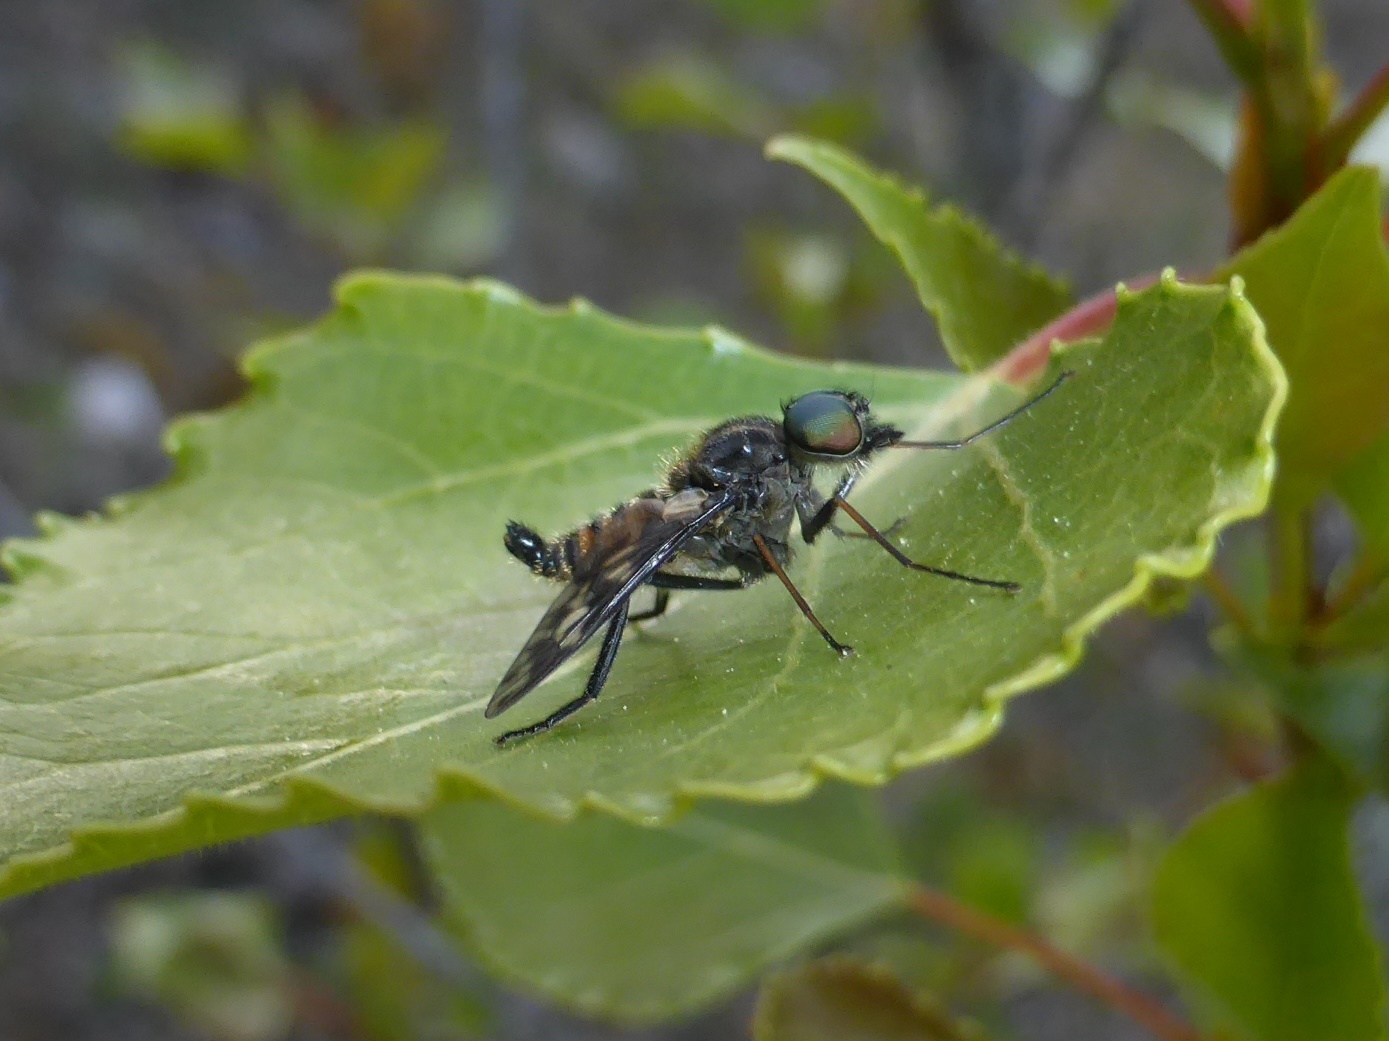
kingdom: Animalia
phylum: Arthropoda
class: Insecta
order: Diptera
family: Athericidae
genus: Atherix
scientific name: Atherix ibis
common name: Yellow-legged water-snipefly
